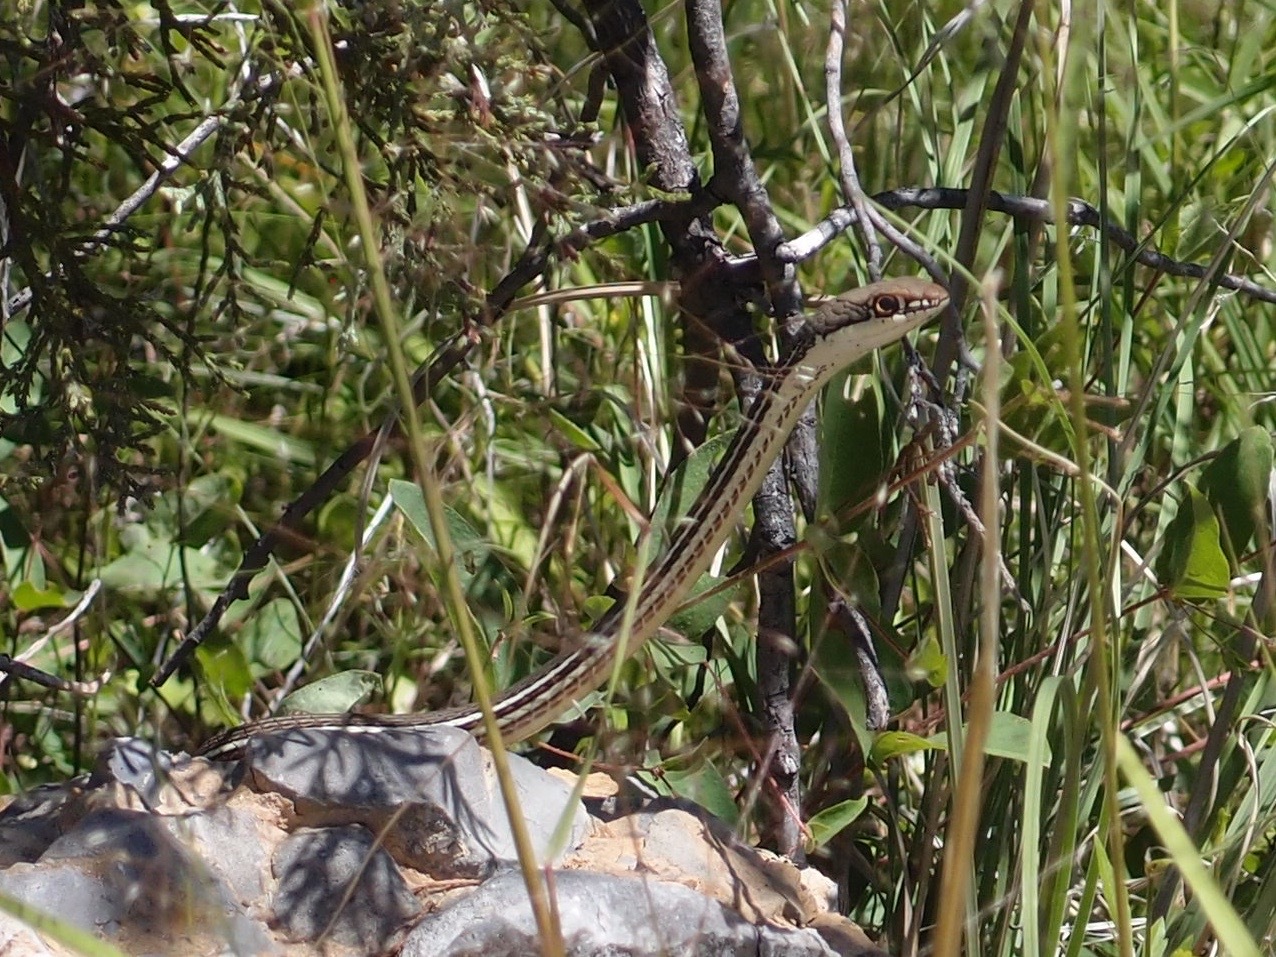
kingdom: Animalia
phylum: Chordata
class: Squamata
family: Colubridae
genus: Masticophis
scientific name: Masticophis bilineatus
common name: Sonoran whipsnake
